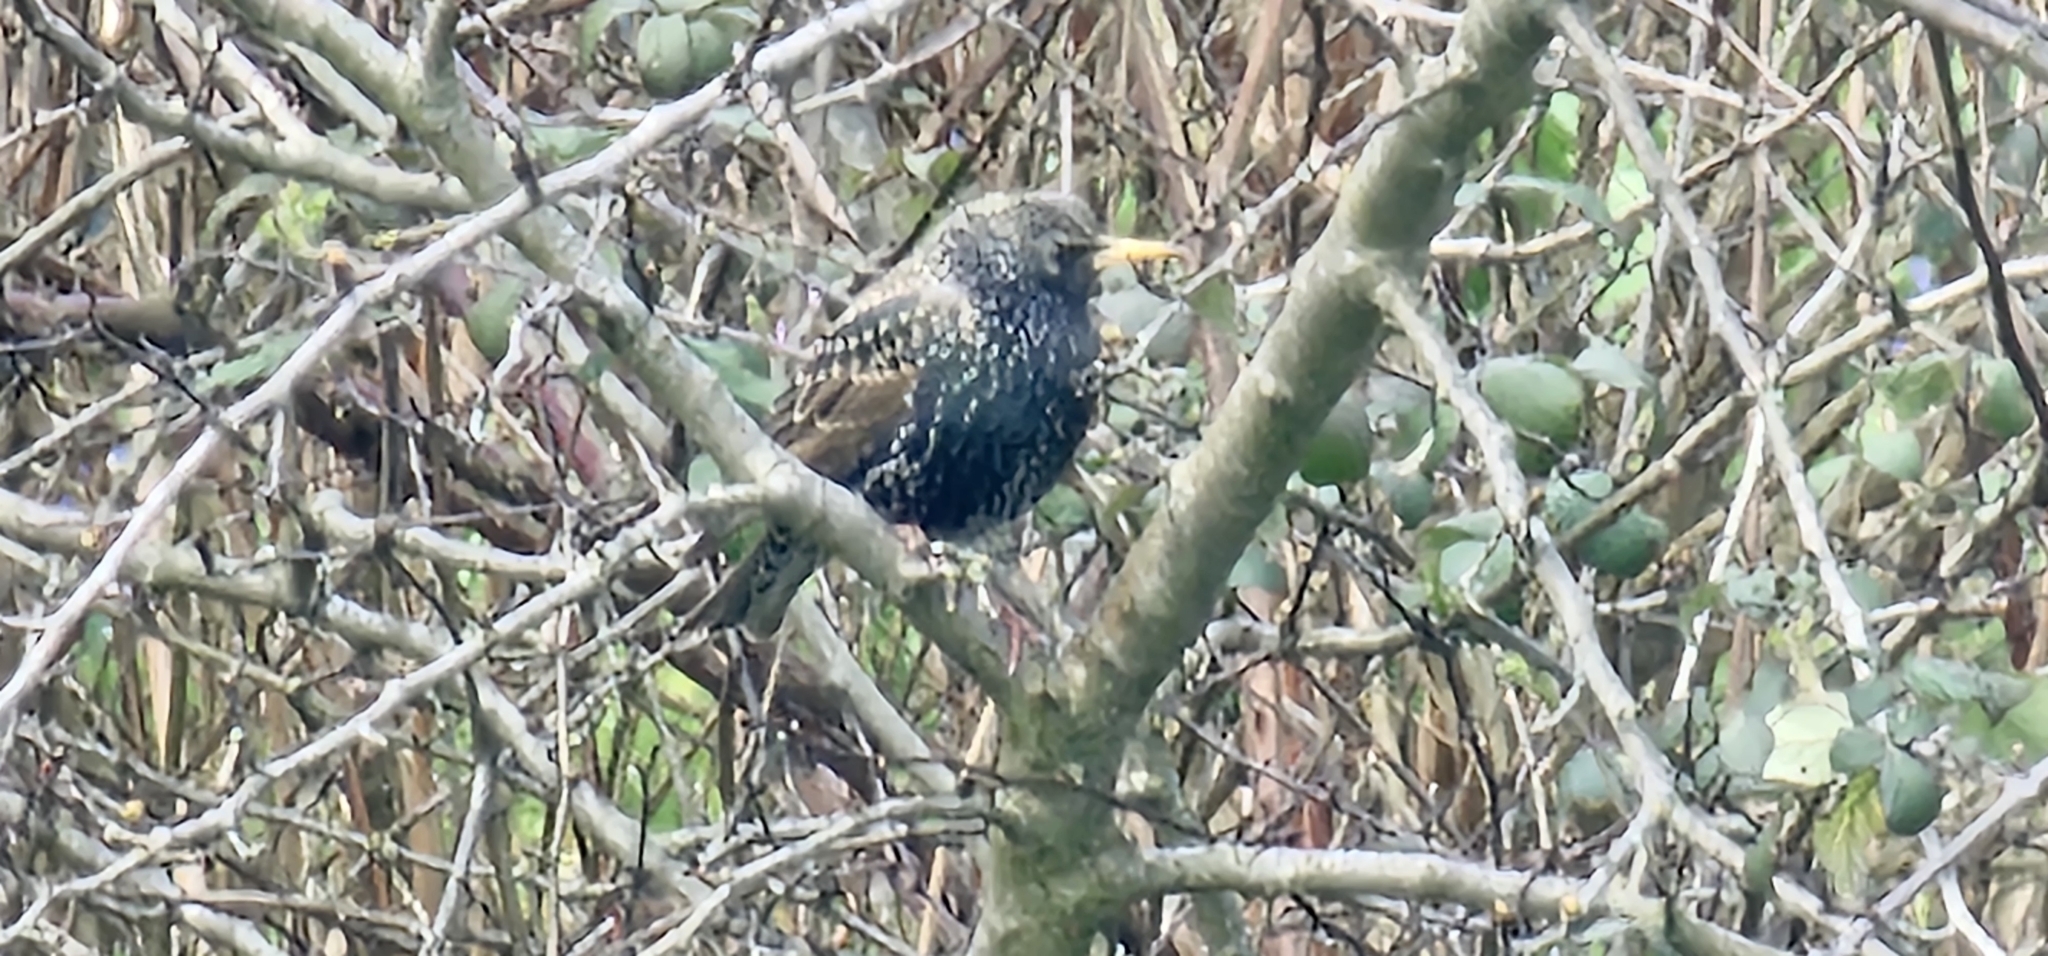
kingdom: Animalia
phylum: Chordata
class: Aves
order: Passeriformes
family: Sturnidae
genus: Sturnus
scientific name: Sturnus vulgaris
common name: Common starling
